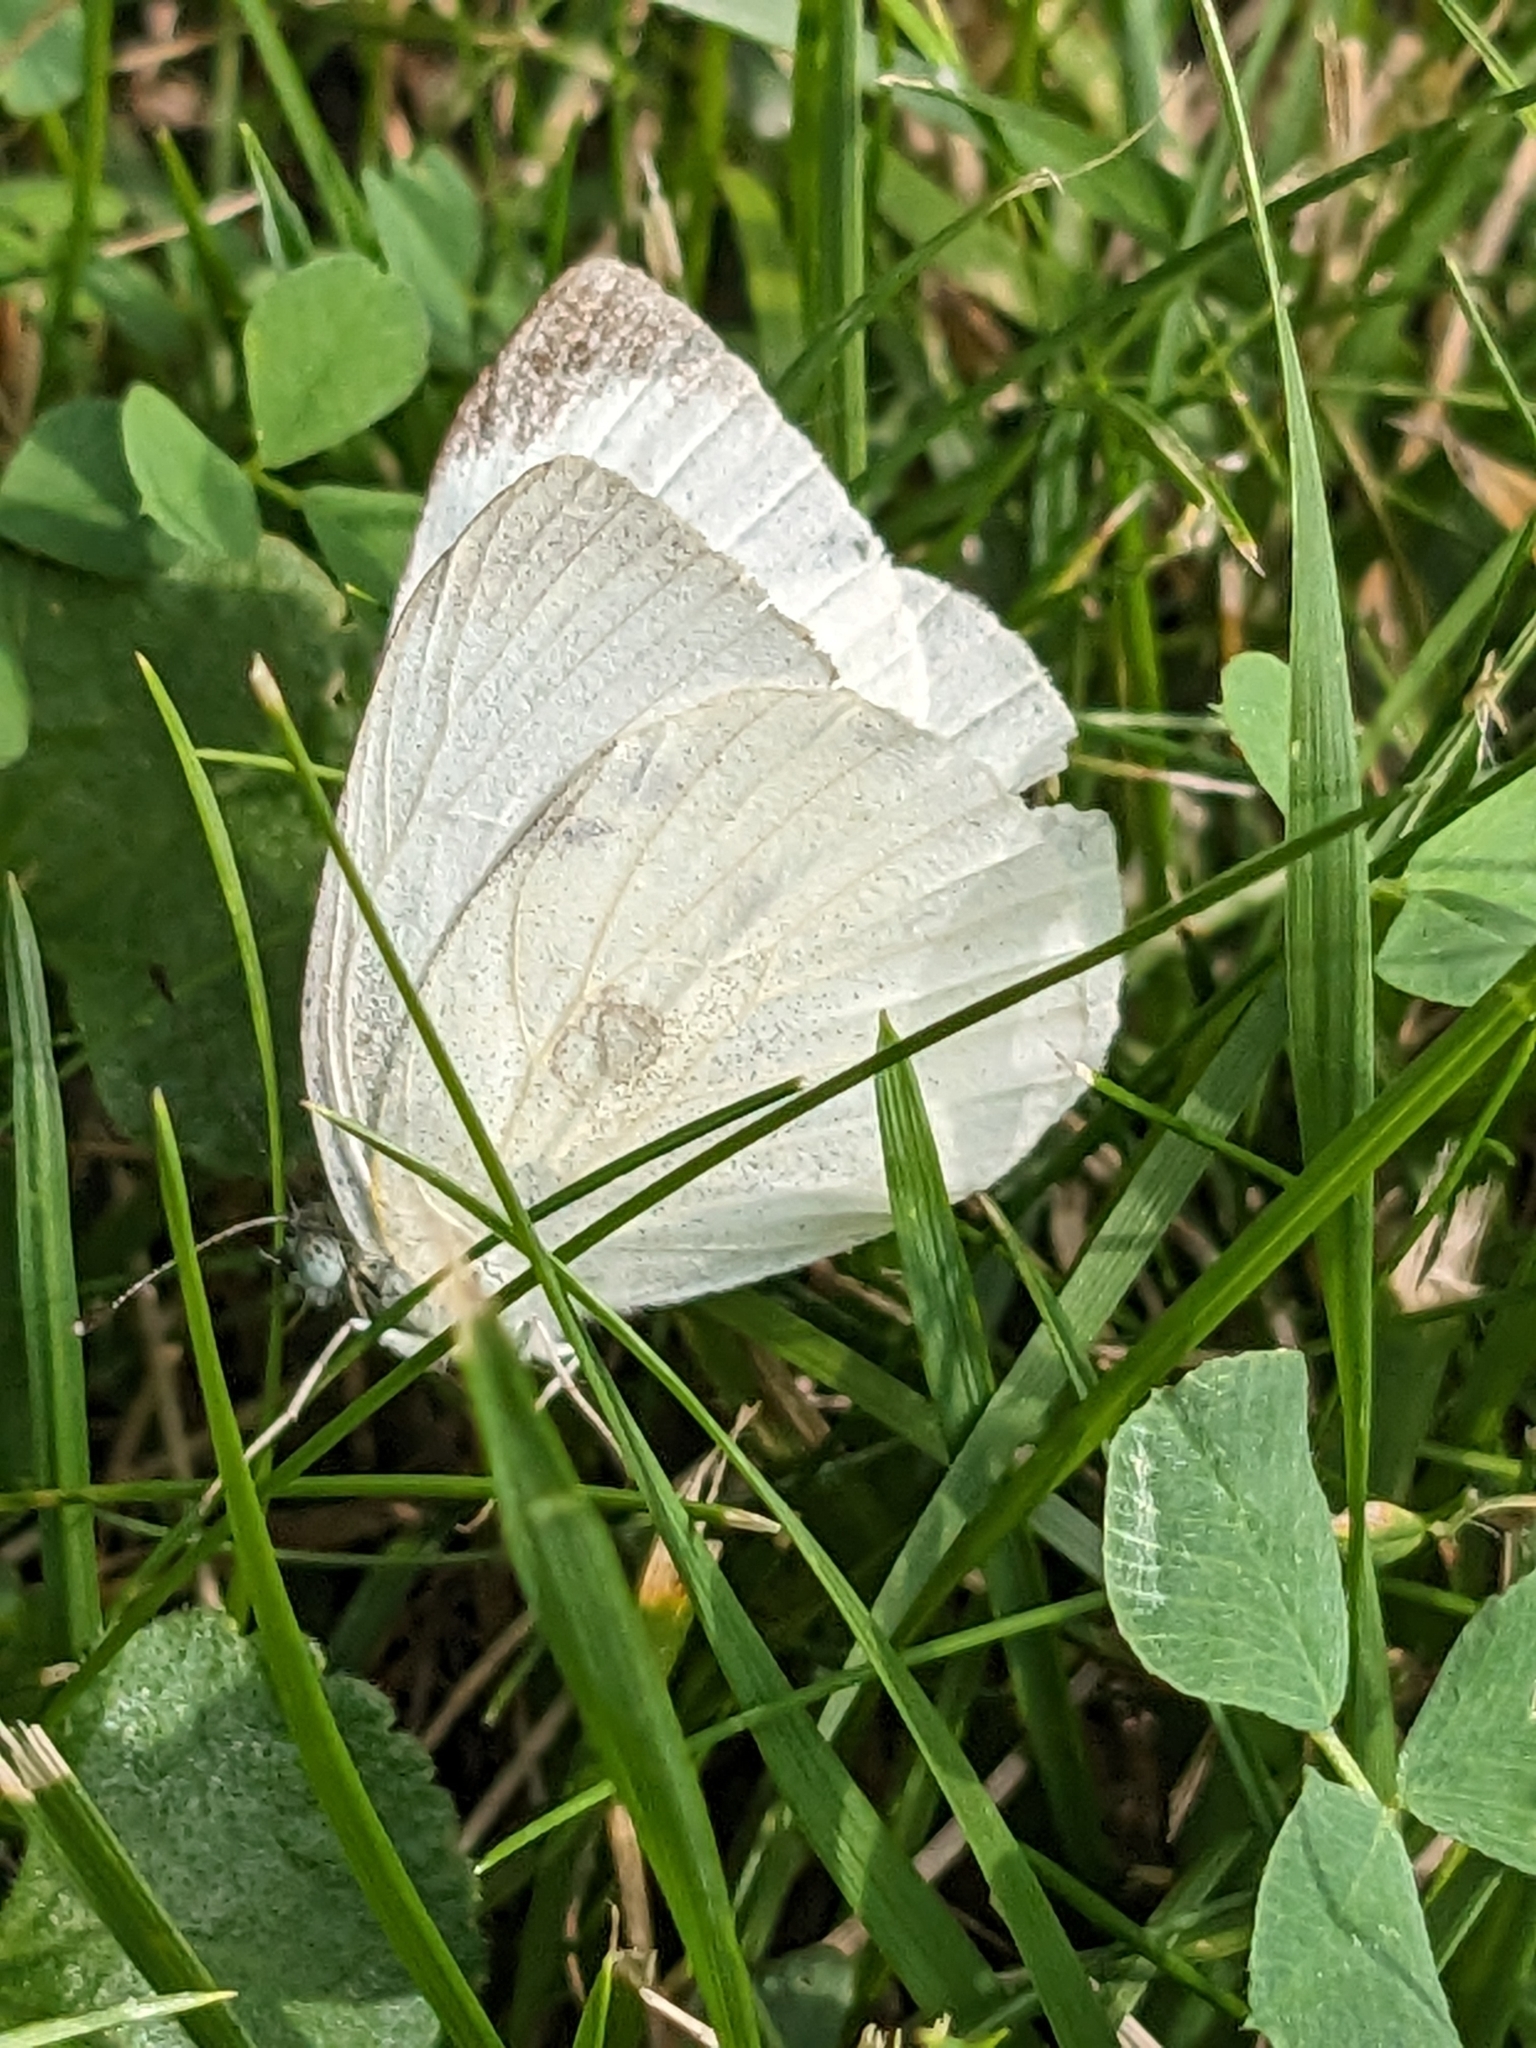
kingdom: Animalia
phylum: Arthropoda
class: Insecta
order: Lepidoptera
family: Pieridae
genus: Pieris
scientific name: Pieris rapae
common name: Small white
